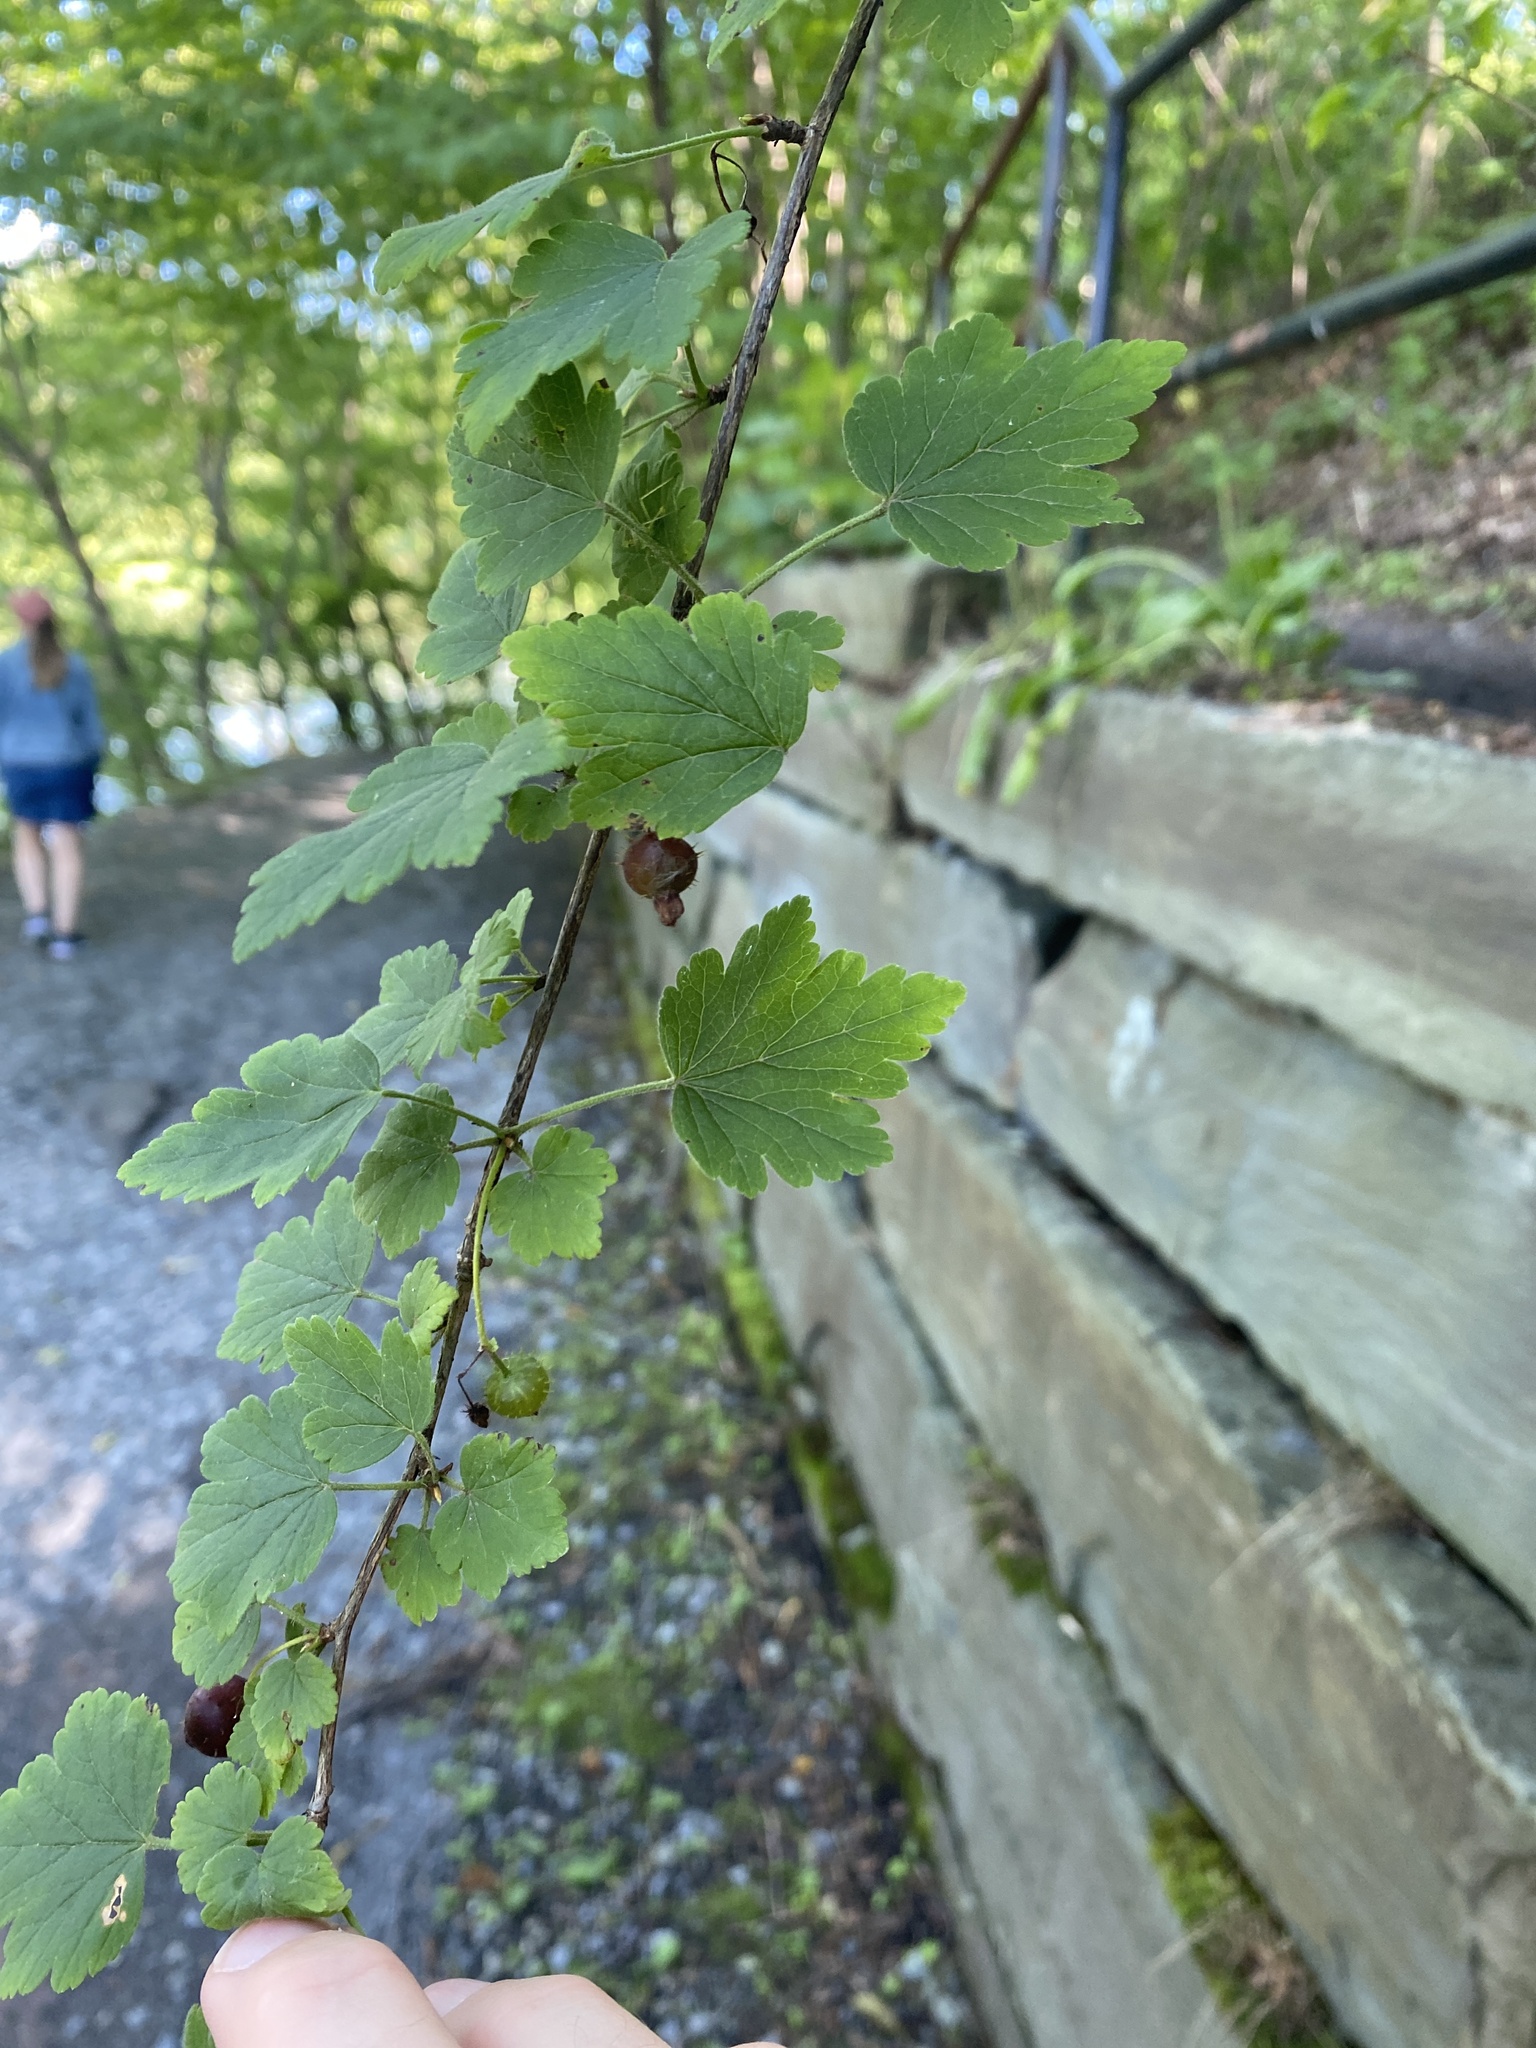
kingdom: Plantae
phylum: Tracheophyta
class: Magnoliopsida
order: Saxifragales
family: Grossulariaceae
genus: Ribes
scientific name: Ribes cynosbati
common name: American gooseberry
